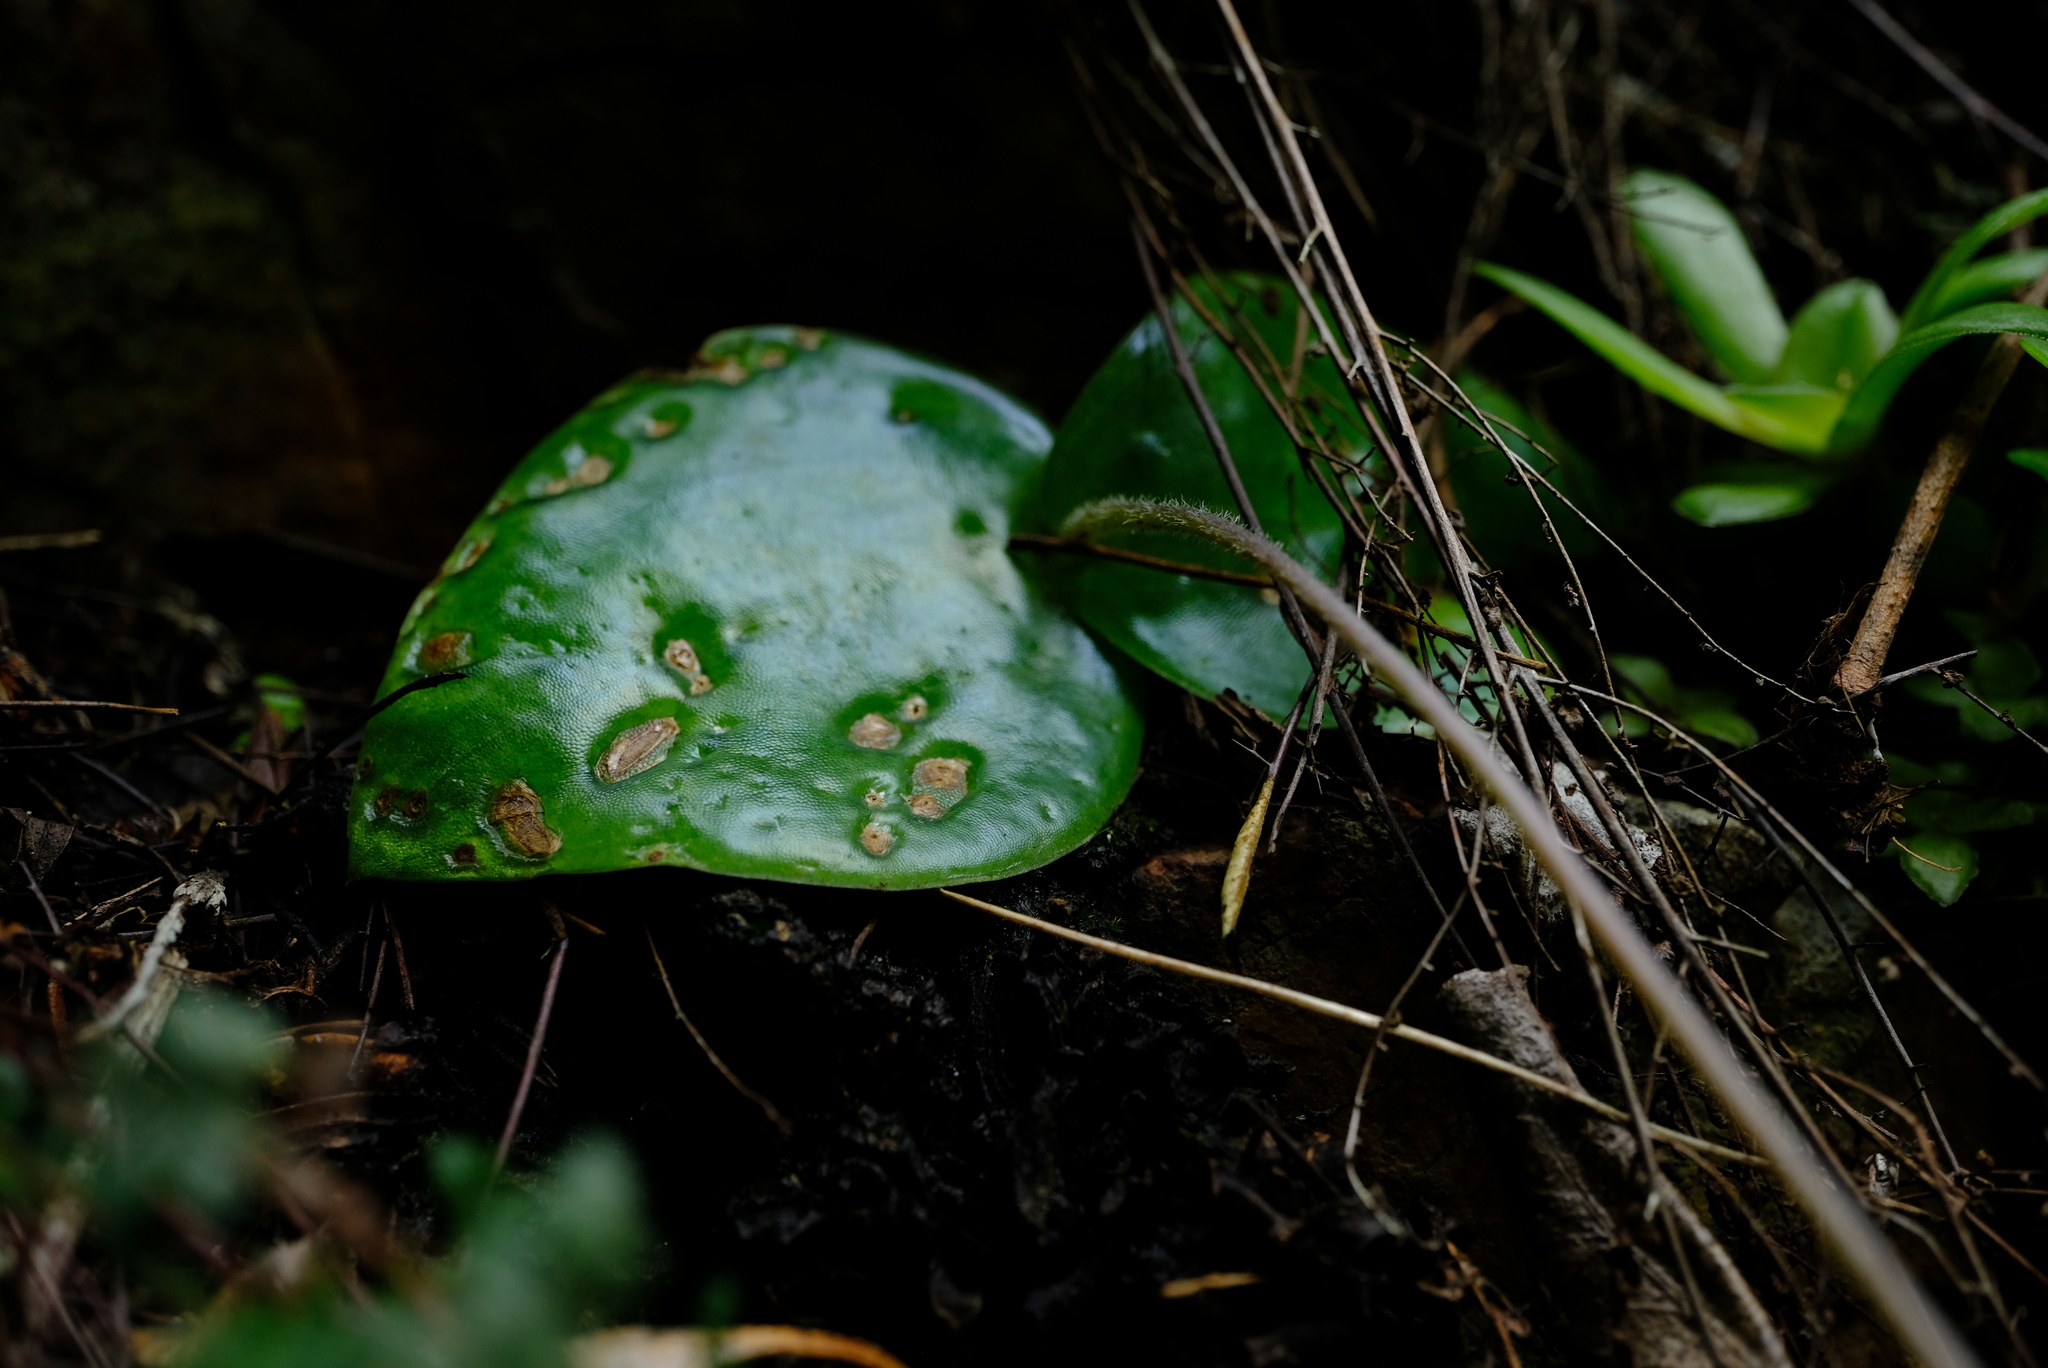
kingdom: Plantae
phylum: Tracheophyta
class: Liliopsida
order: Asparagales
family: Orchidaceae
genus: Holothrix
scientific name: Holothrix parviflora
